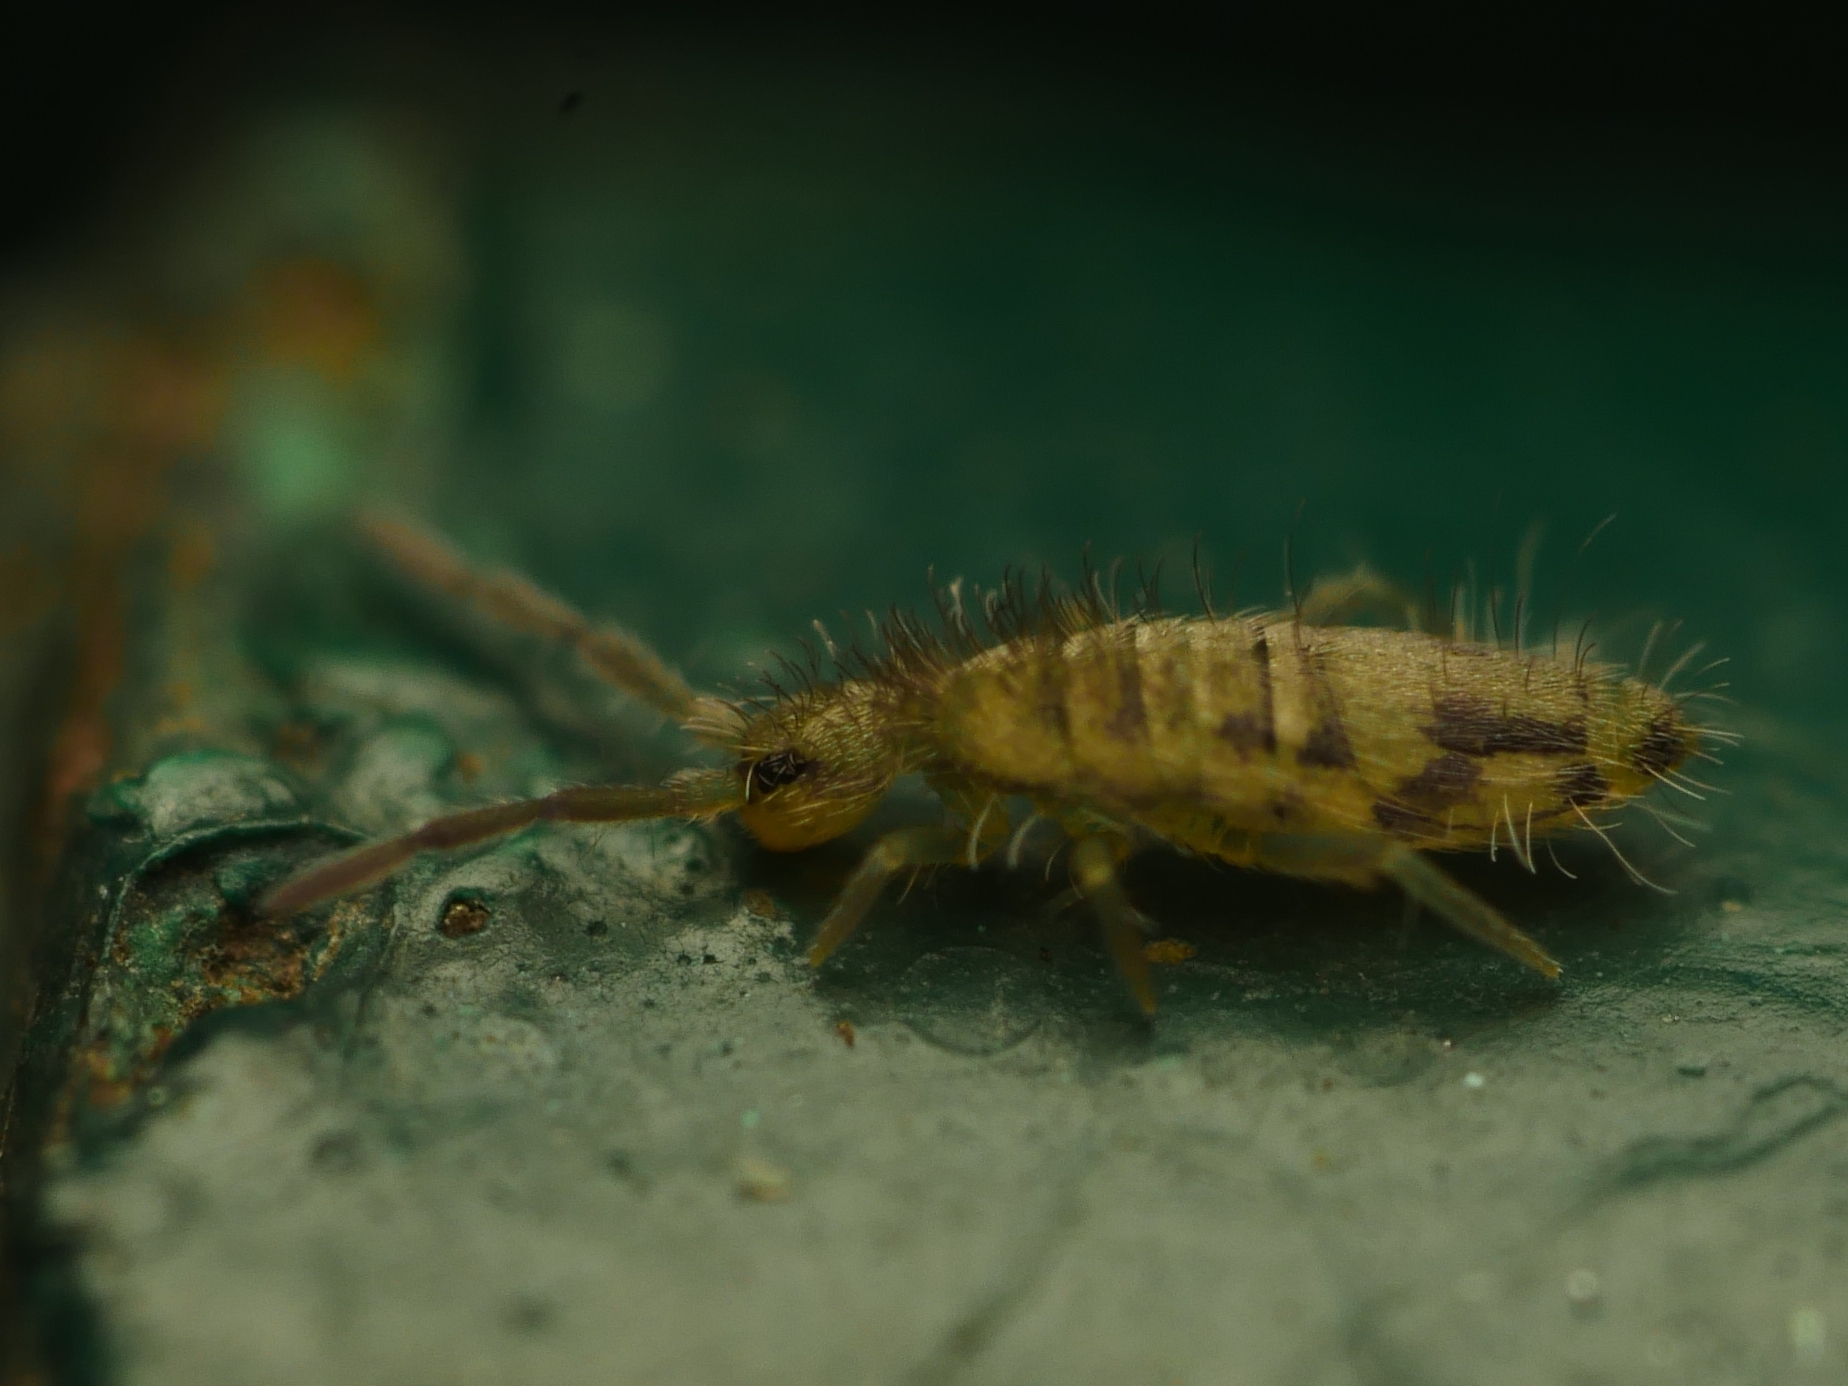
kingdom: Animalia
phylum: Arthropoda
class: Collembola
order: Entomobryomorpha
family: Entomobryidae
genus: Entomobrya
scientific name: Entomobrya nivalis
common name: Cosmopolitan springtail
